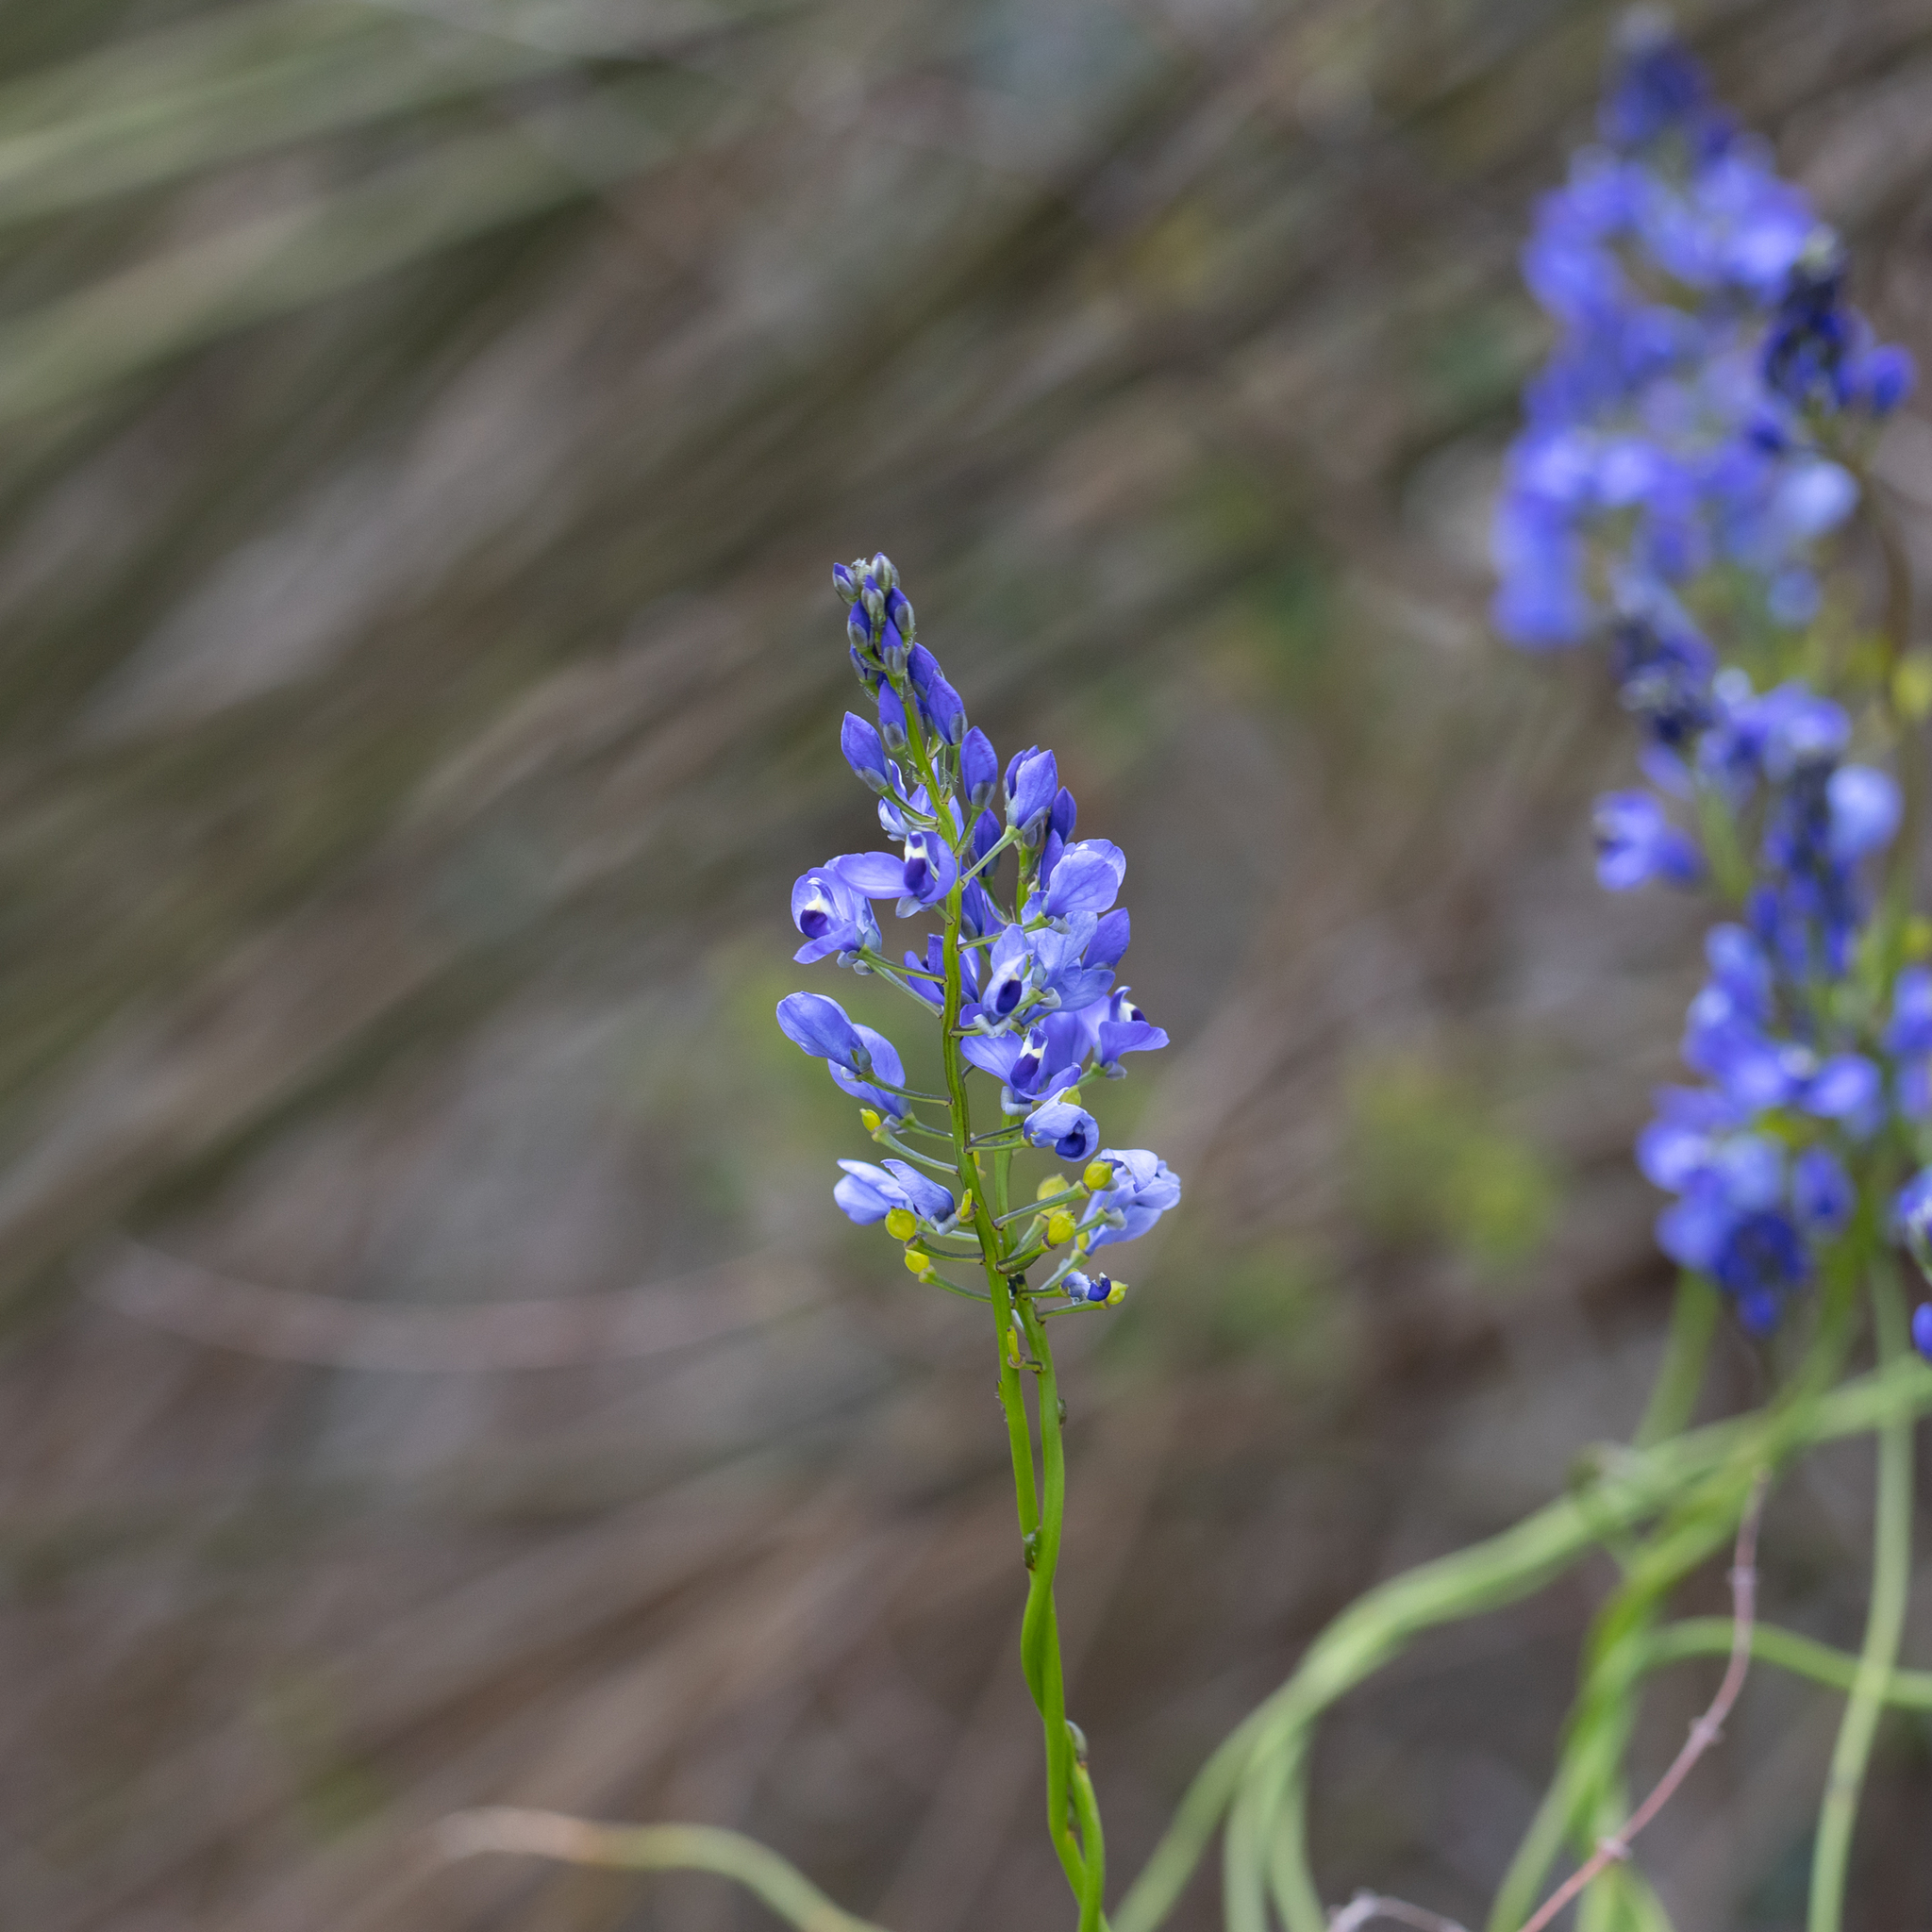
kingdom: Plantae
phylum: Tracheophyta
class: Magnoliopsida
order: Fabales
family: Polygalaceae
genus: Comesperma
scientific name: Comesperma ciliatum
